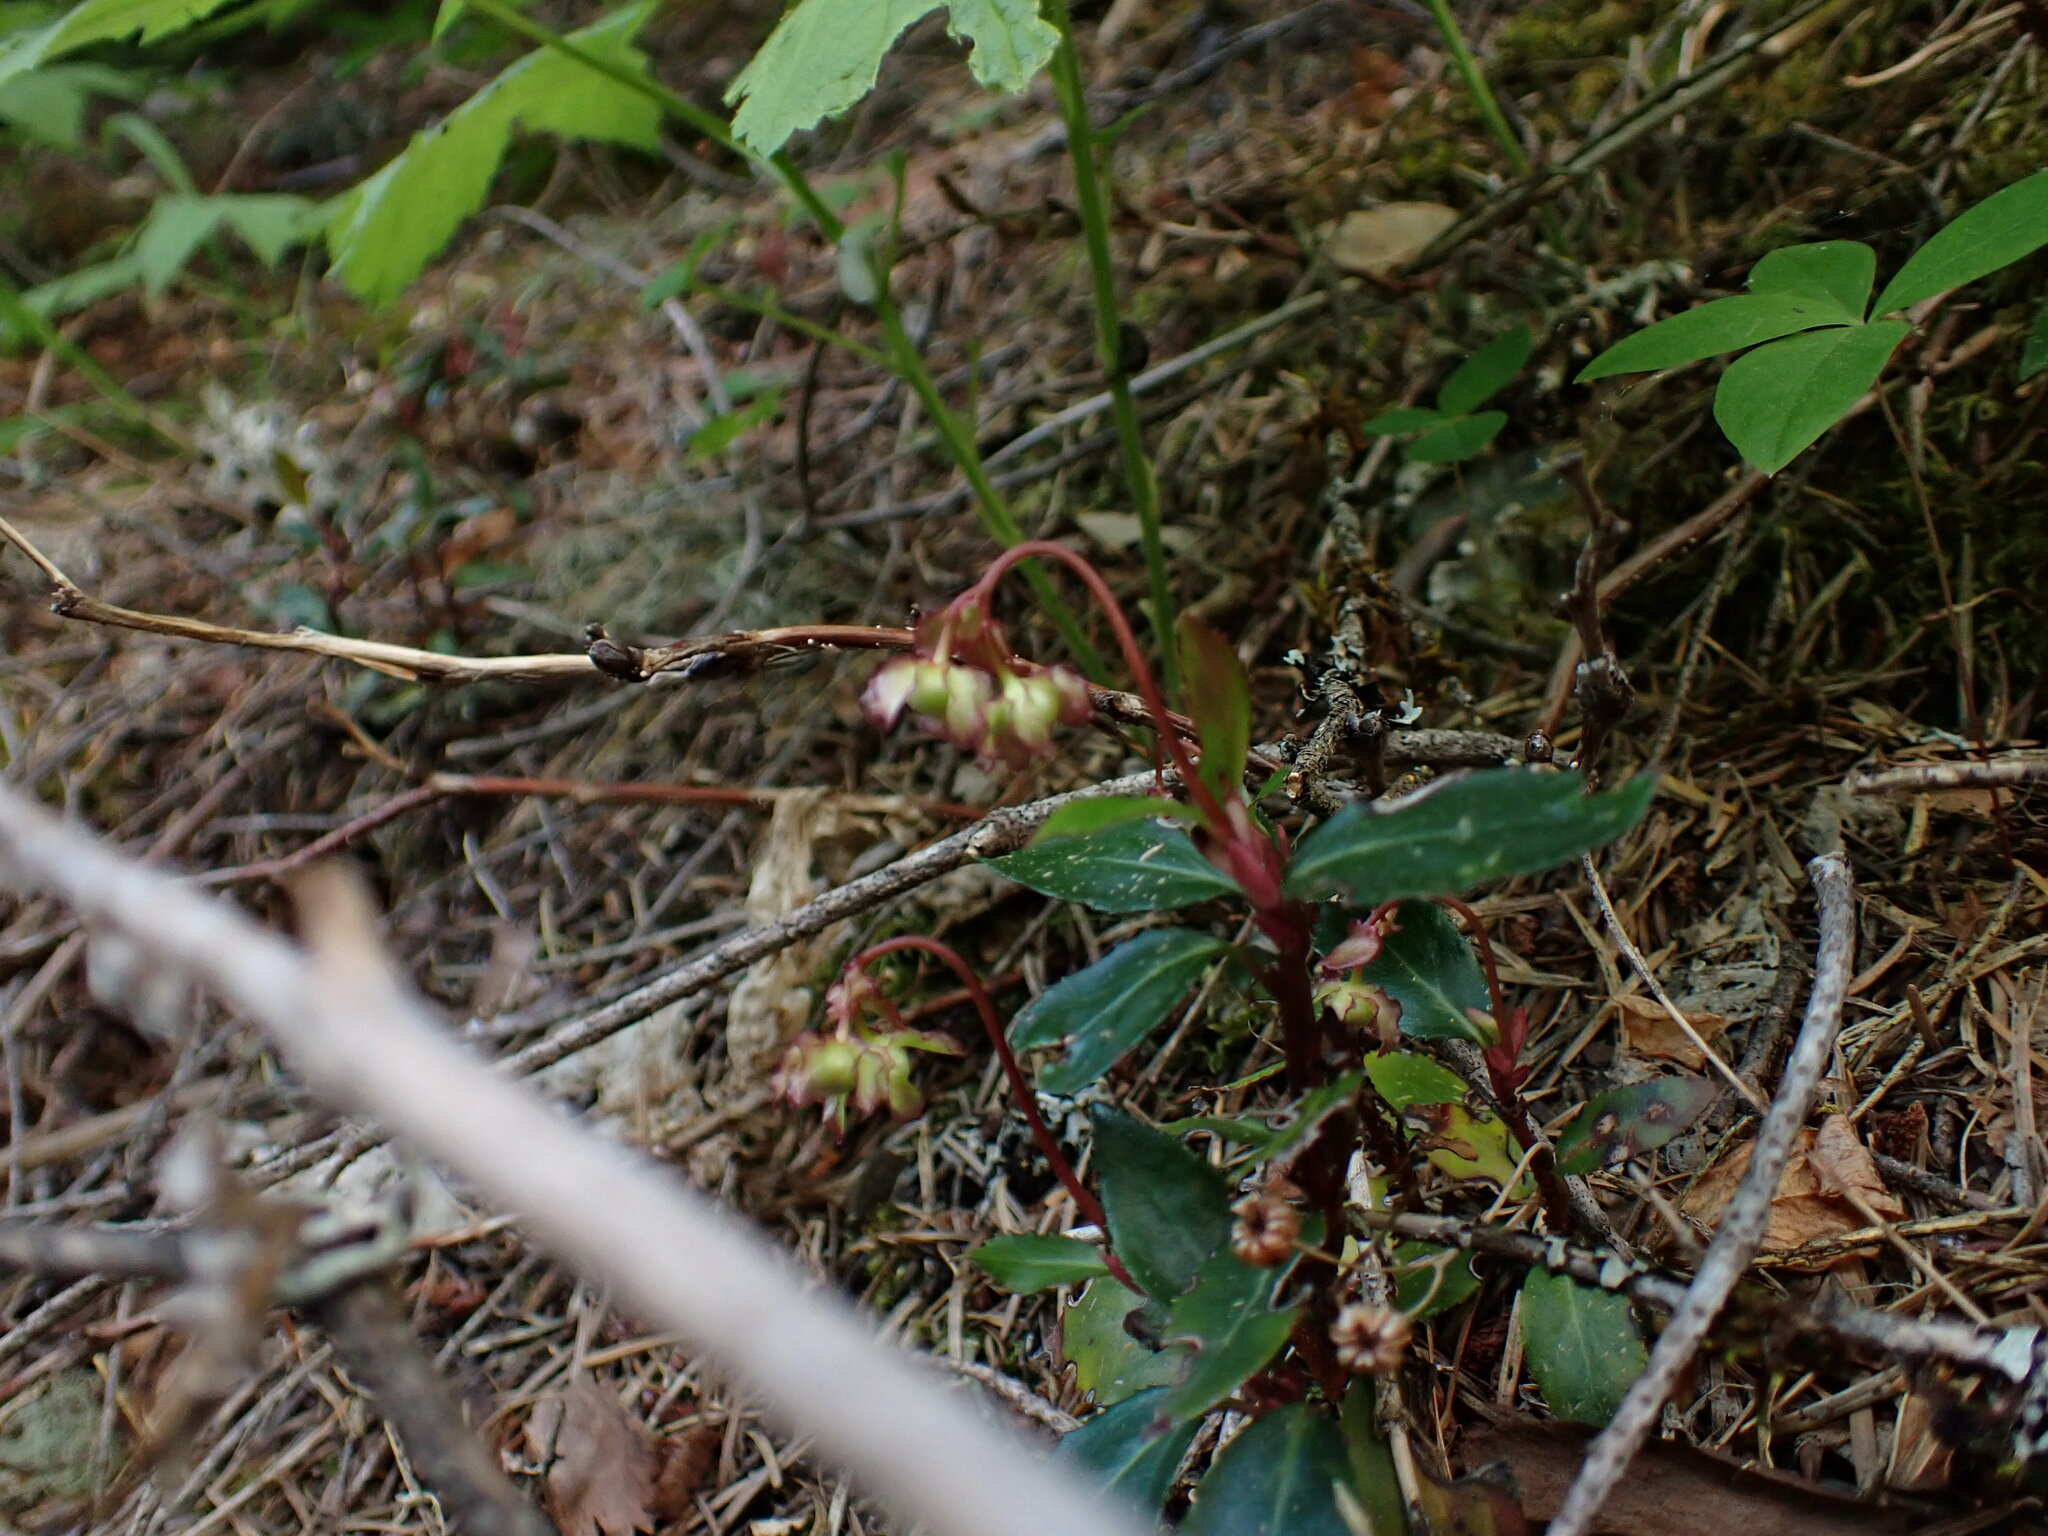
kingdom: Plantae
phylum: Tracheophyta
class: Magnoliopsida
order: Ericales
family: Ericaceae
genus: Chimaphila
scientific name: Chimaphila menziesii
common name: Menzies' pipsissewa
